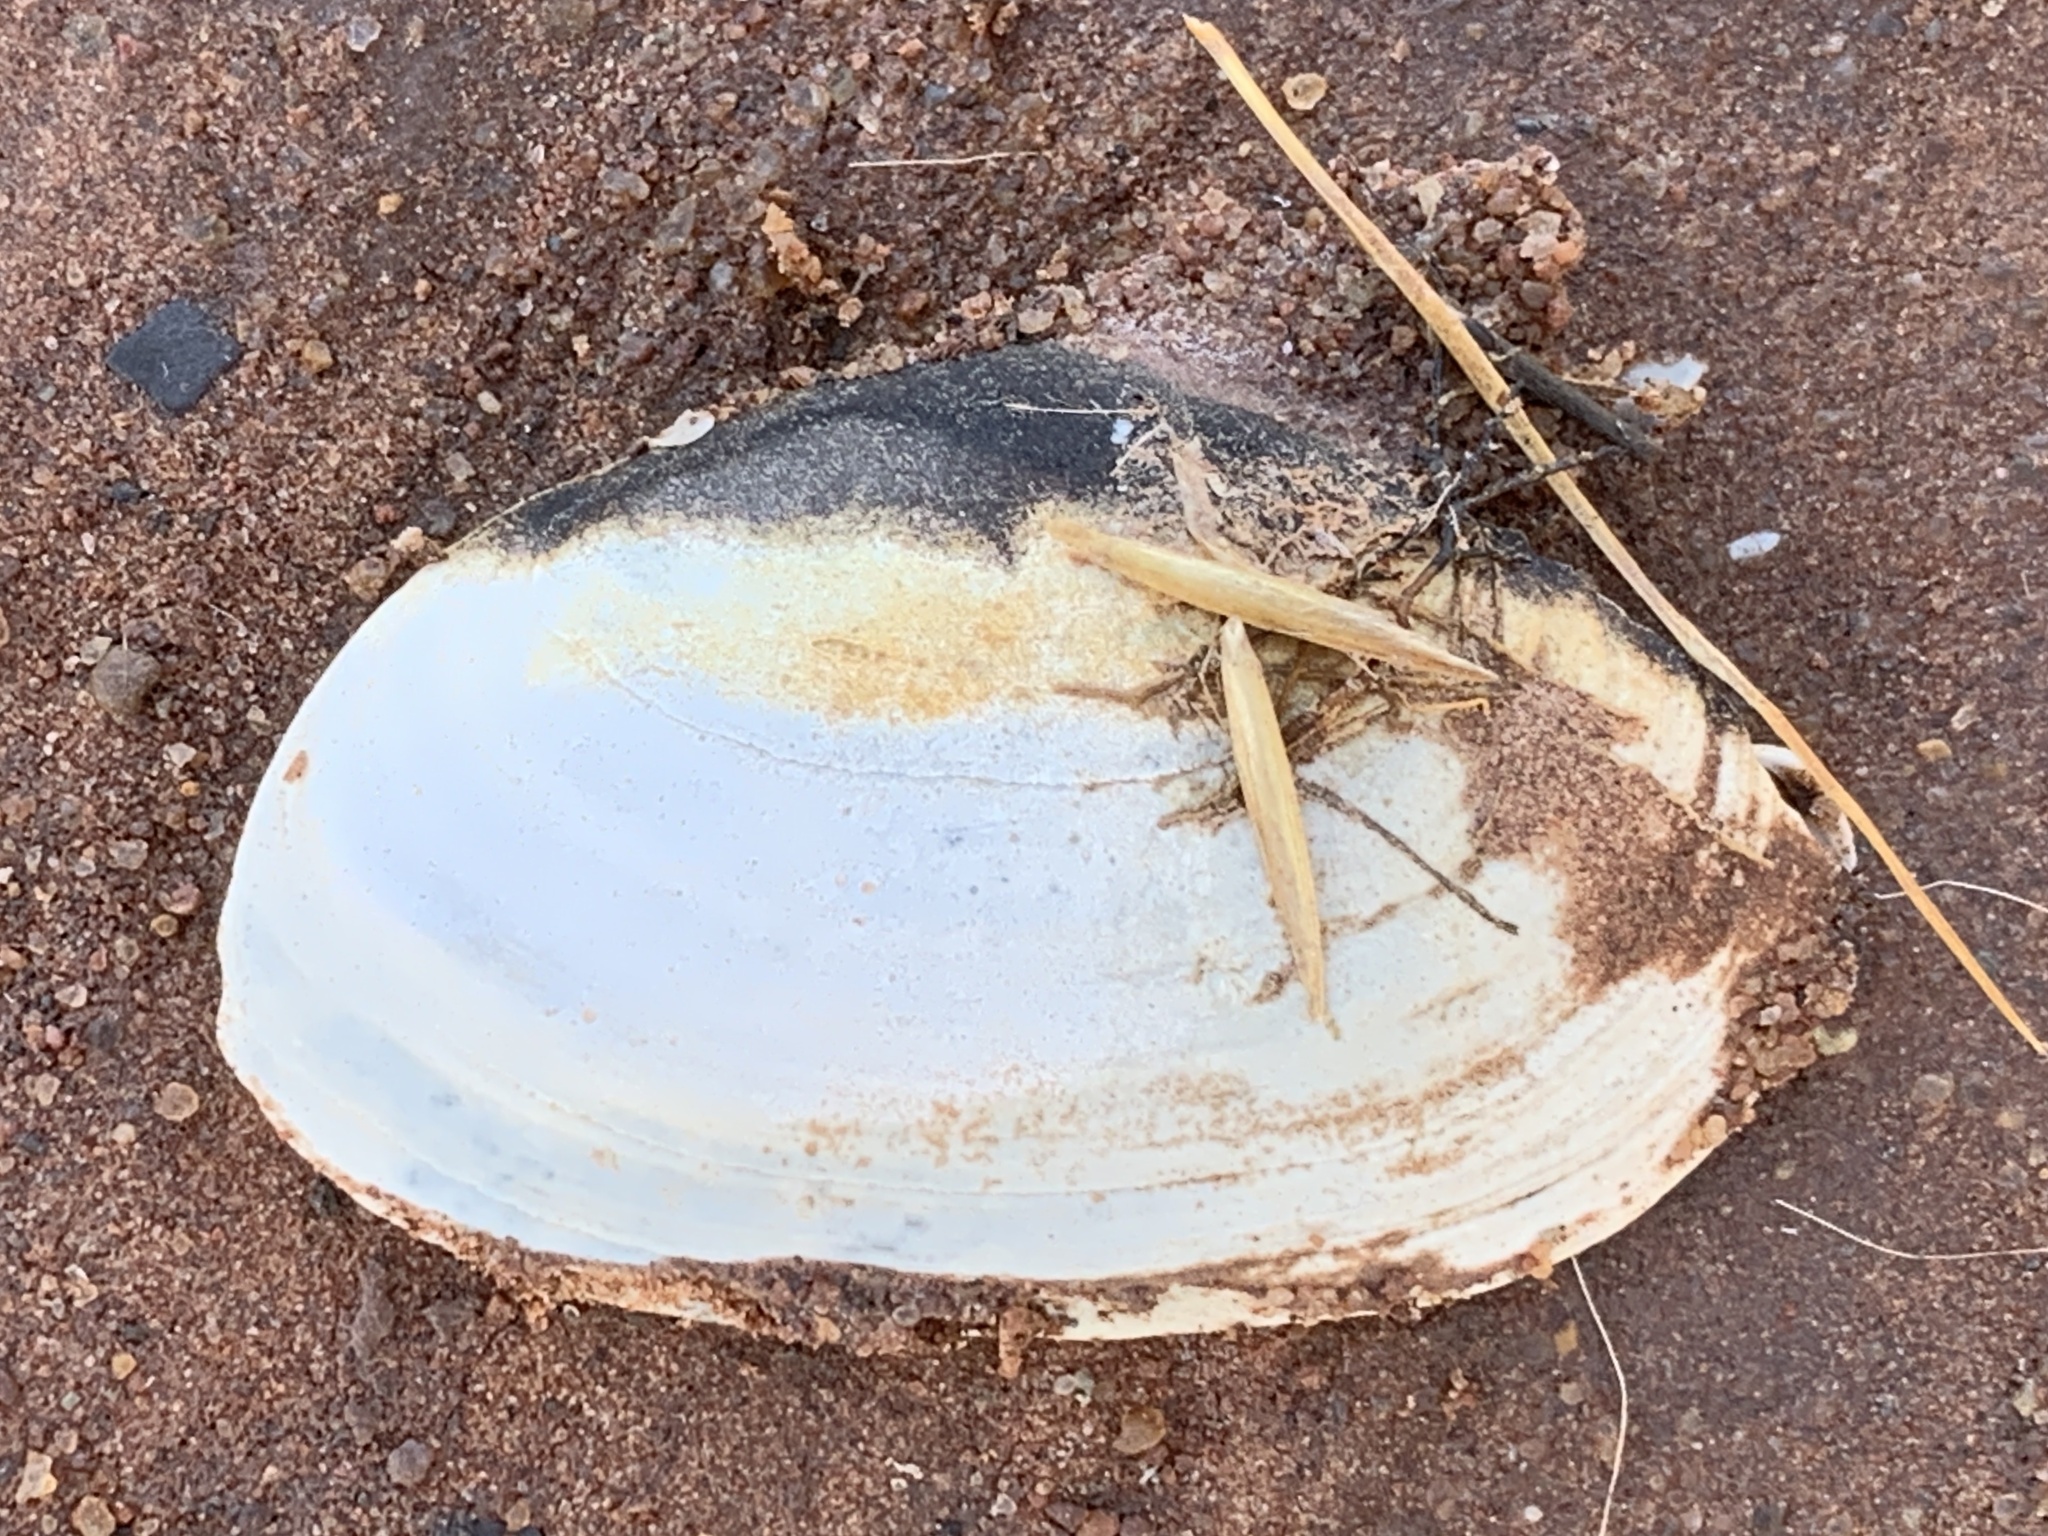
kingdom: Animalia
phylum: Mollusca
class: Bivalvia
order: Myida
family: Myidae
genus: Mya
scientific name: Mya arenaria
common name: Soft-shelled clam
